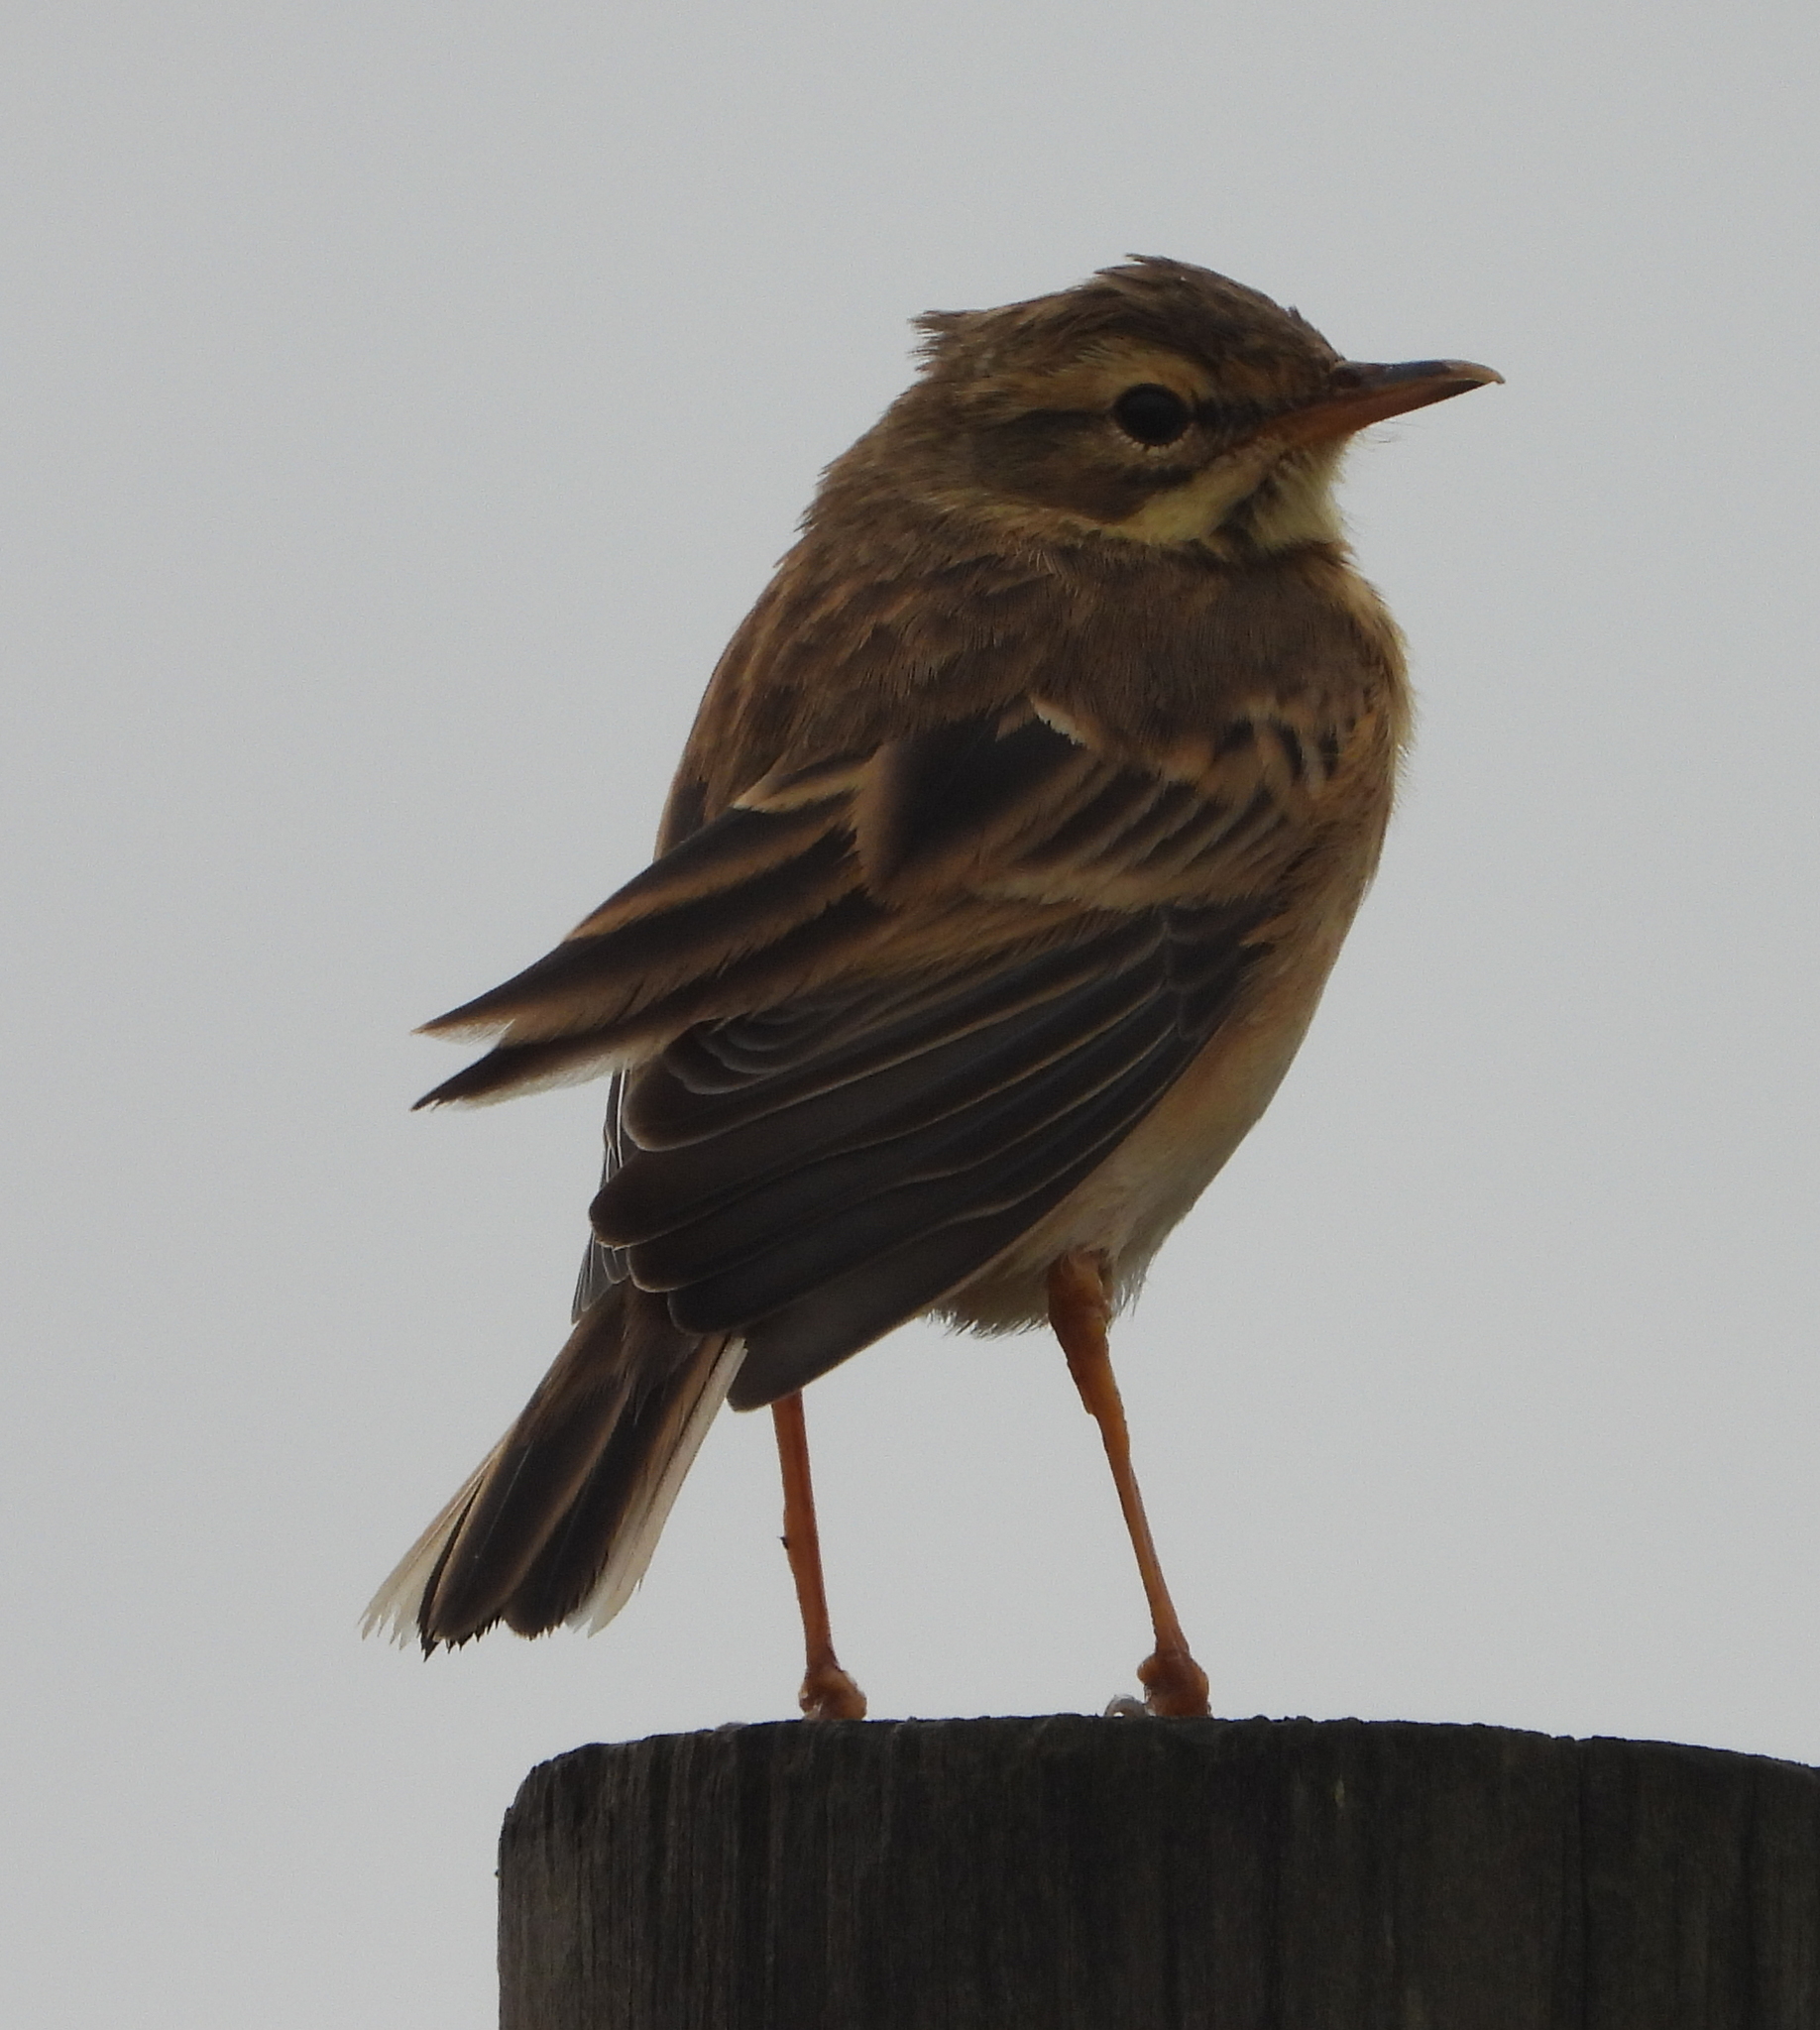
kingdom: Animalia
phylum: Chordata
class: Aves
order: Passeriformes
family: Motacillidae
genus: Anthus
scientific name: Anthus cinnamomeus
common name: African pipit
